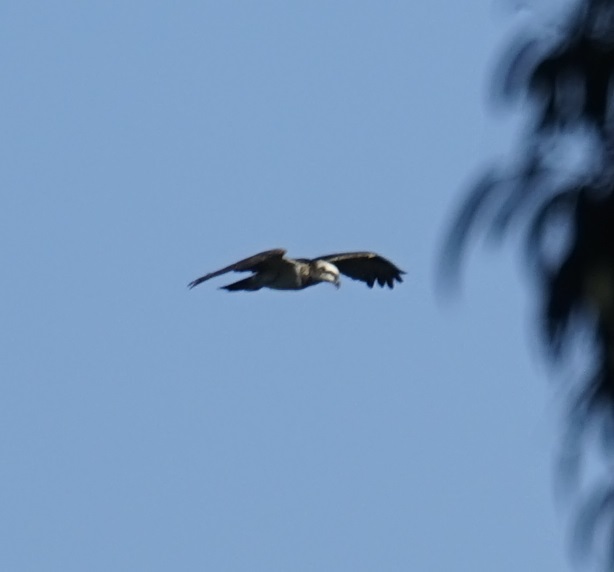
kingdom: Animalia
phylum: Chordata
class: Aves
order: Accipitriformes
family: Pandionidae
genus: Pandion
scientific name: Pandion cristatus
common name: Eastern osprey
